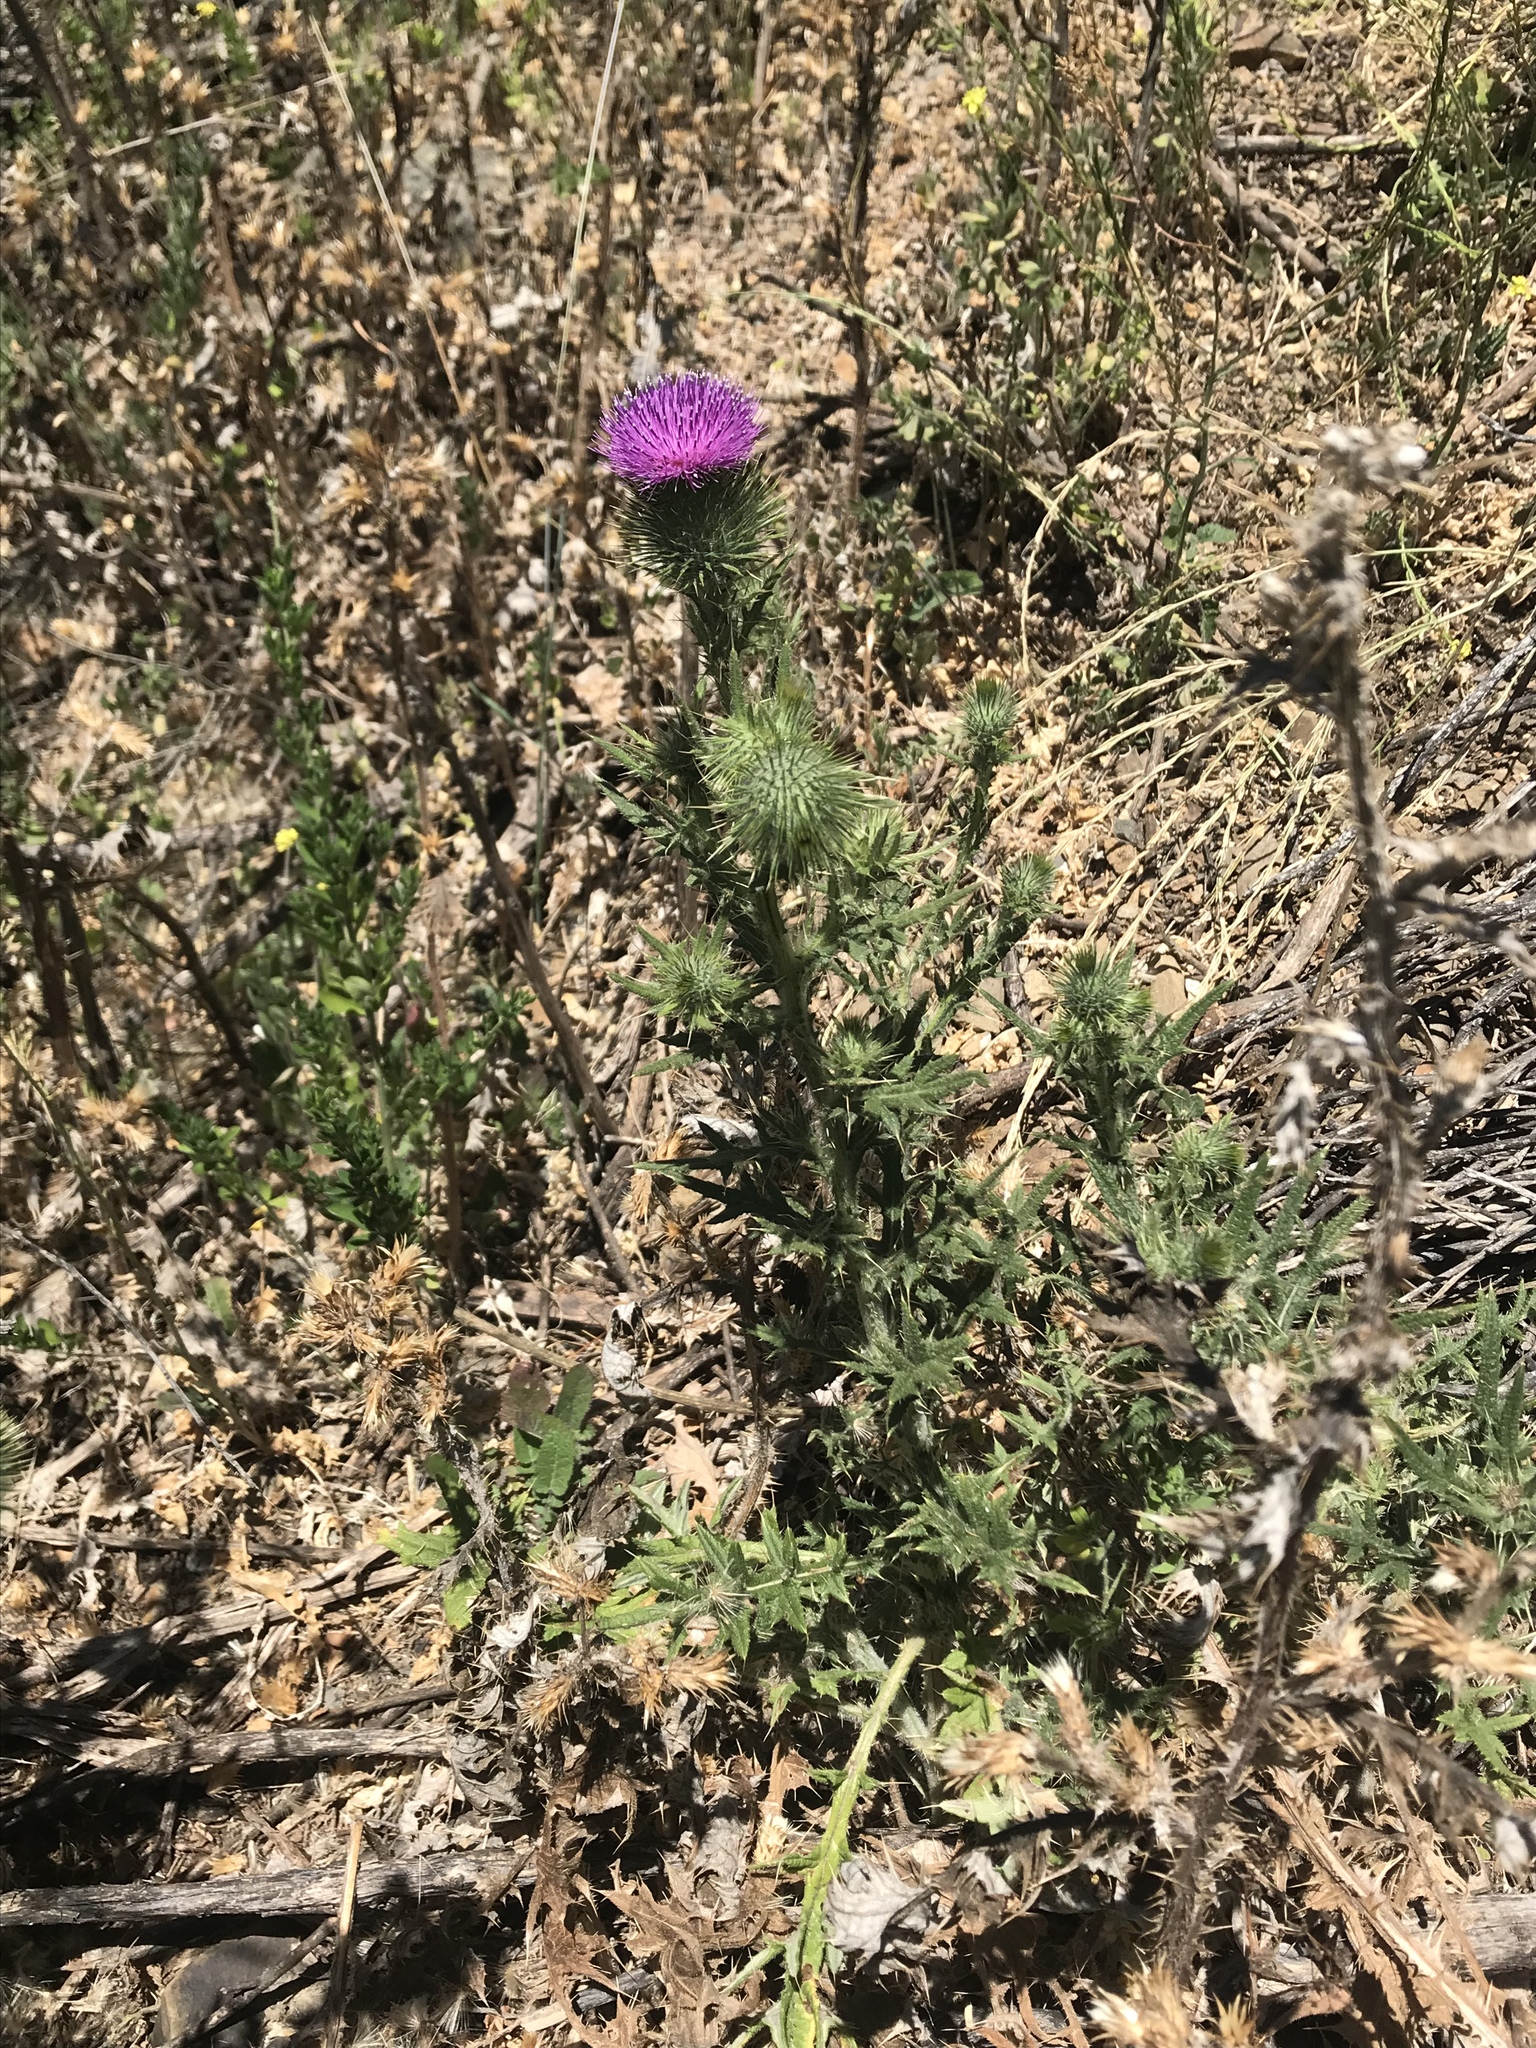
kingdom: Plantae
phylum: Tracheophyta
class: Magnoliopsida
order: Asterales
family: Asteraceae
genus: Cirsium
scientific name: Cirsium vulgare
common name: Bull thistle
